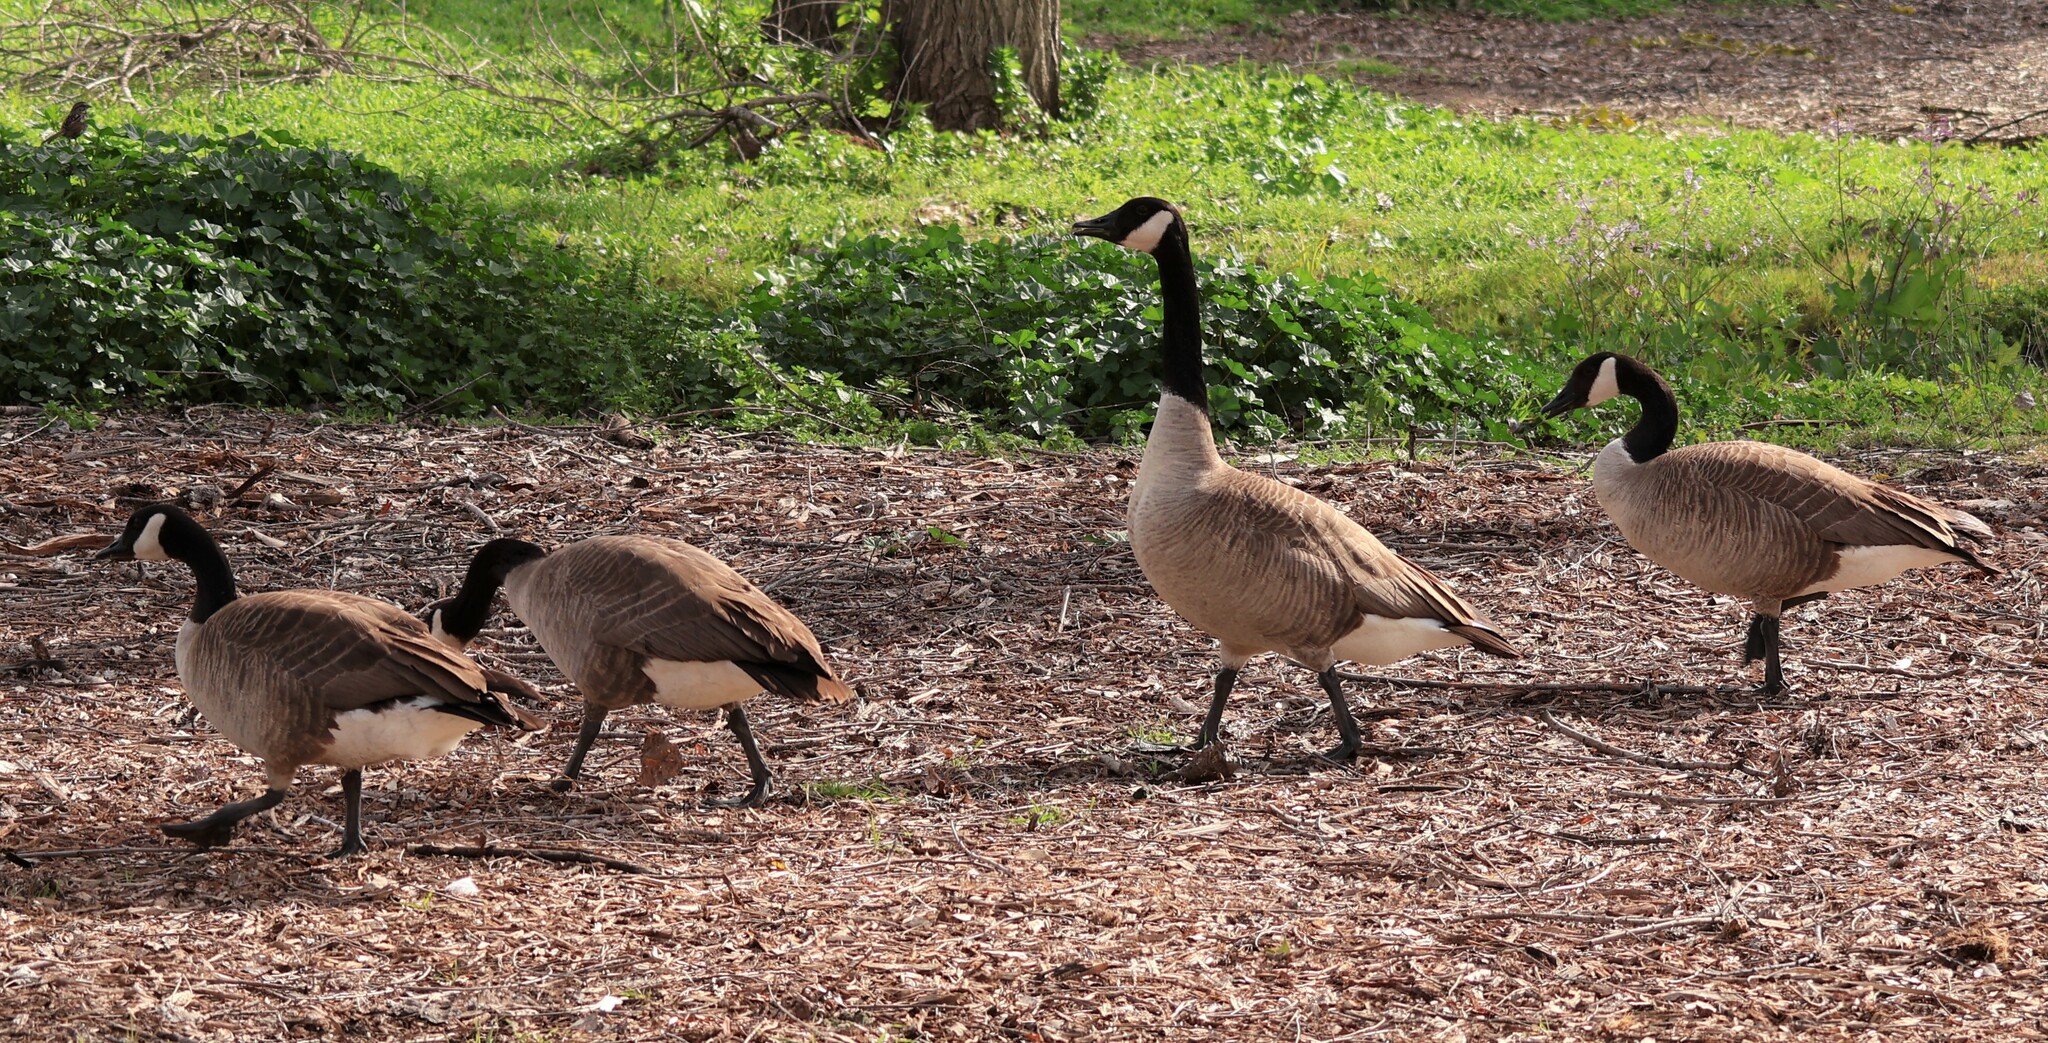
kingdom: Animalia
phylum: Chordata
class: Aves
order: Anseriformes
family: Anatidae
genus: Branta
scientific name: Branta canadensis
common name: Canada goose
